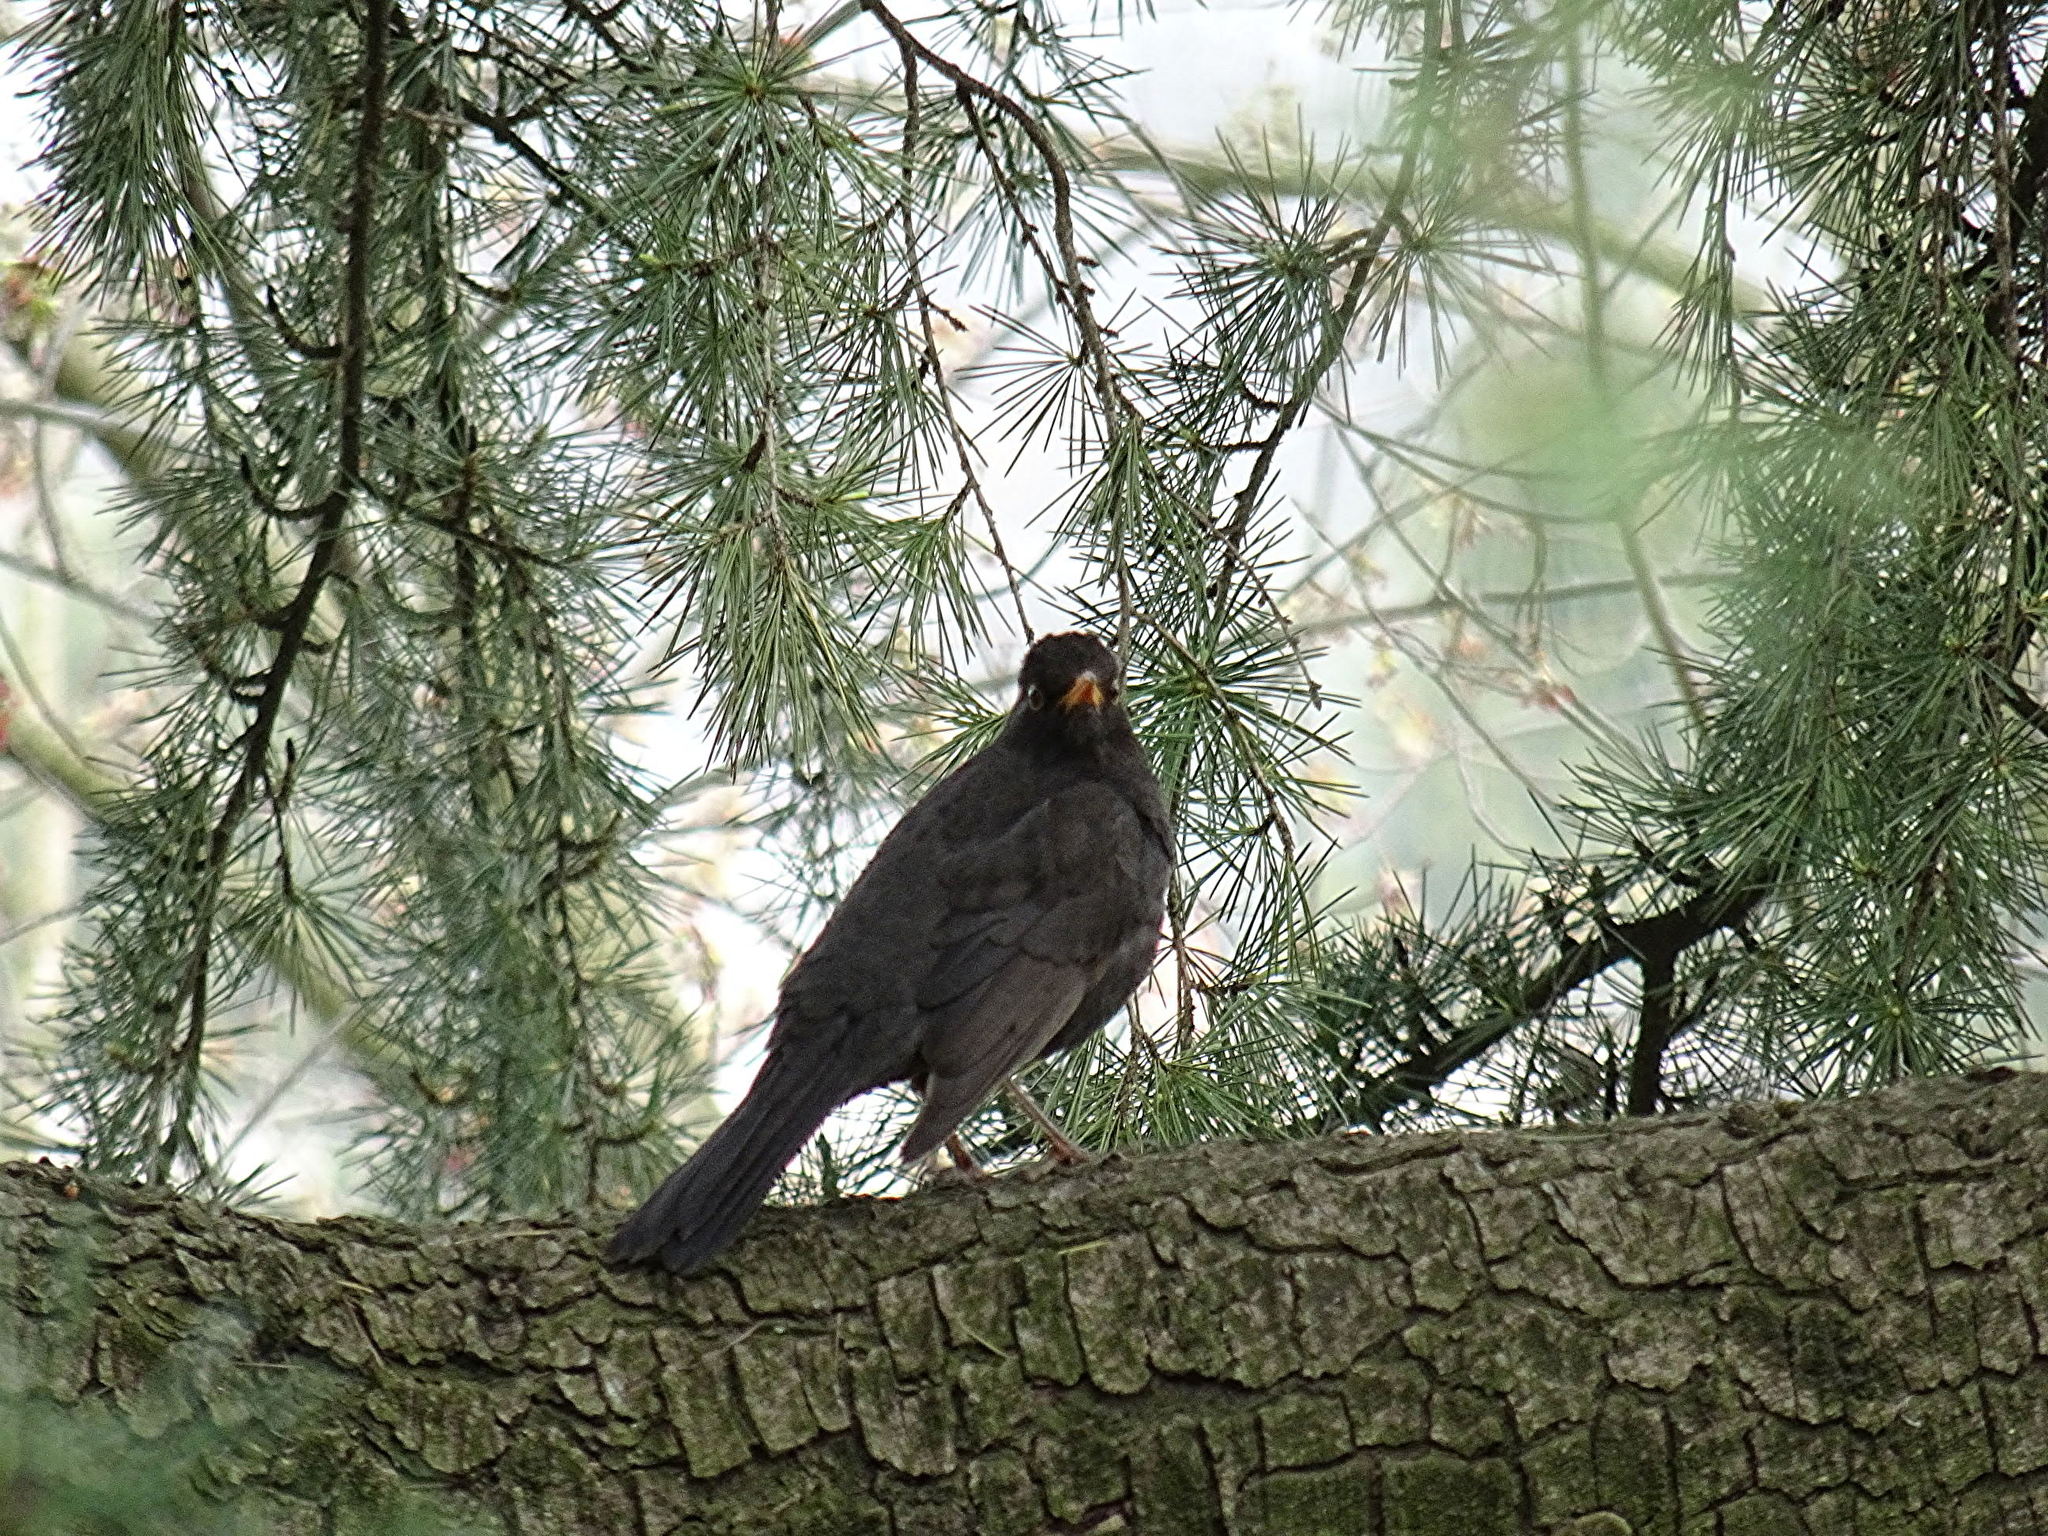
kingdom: Animalia
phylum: Chordata
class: Aves
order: Passeriformes
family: Turdidae
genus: Turdus
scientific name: Turdus merula
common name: Common blackbird
